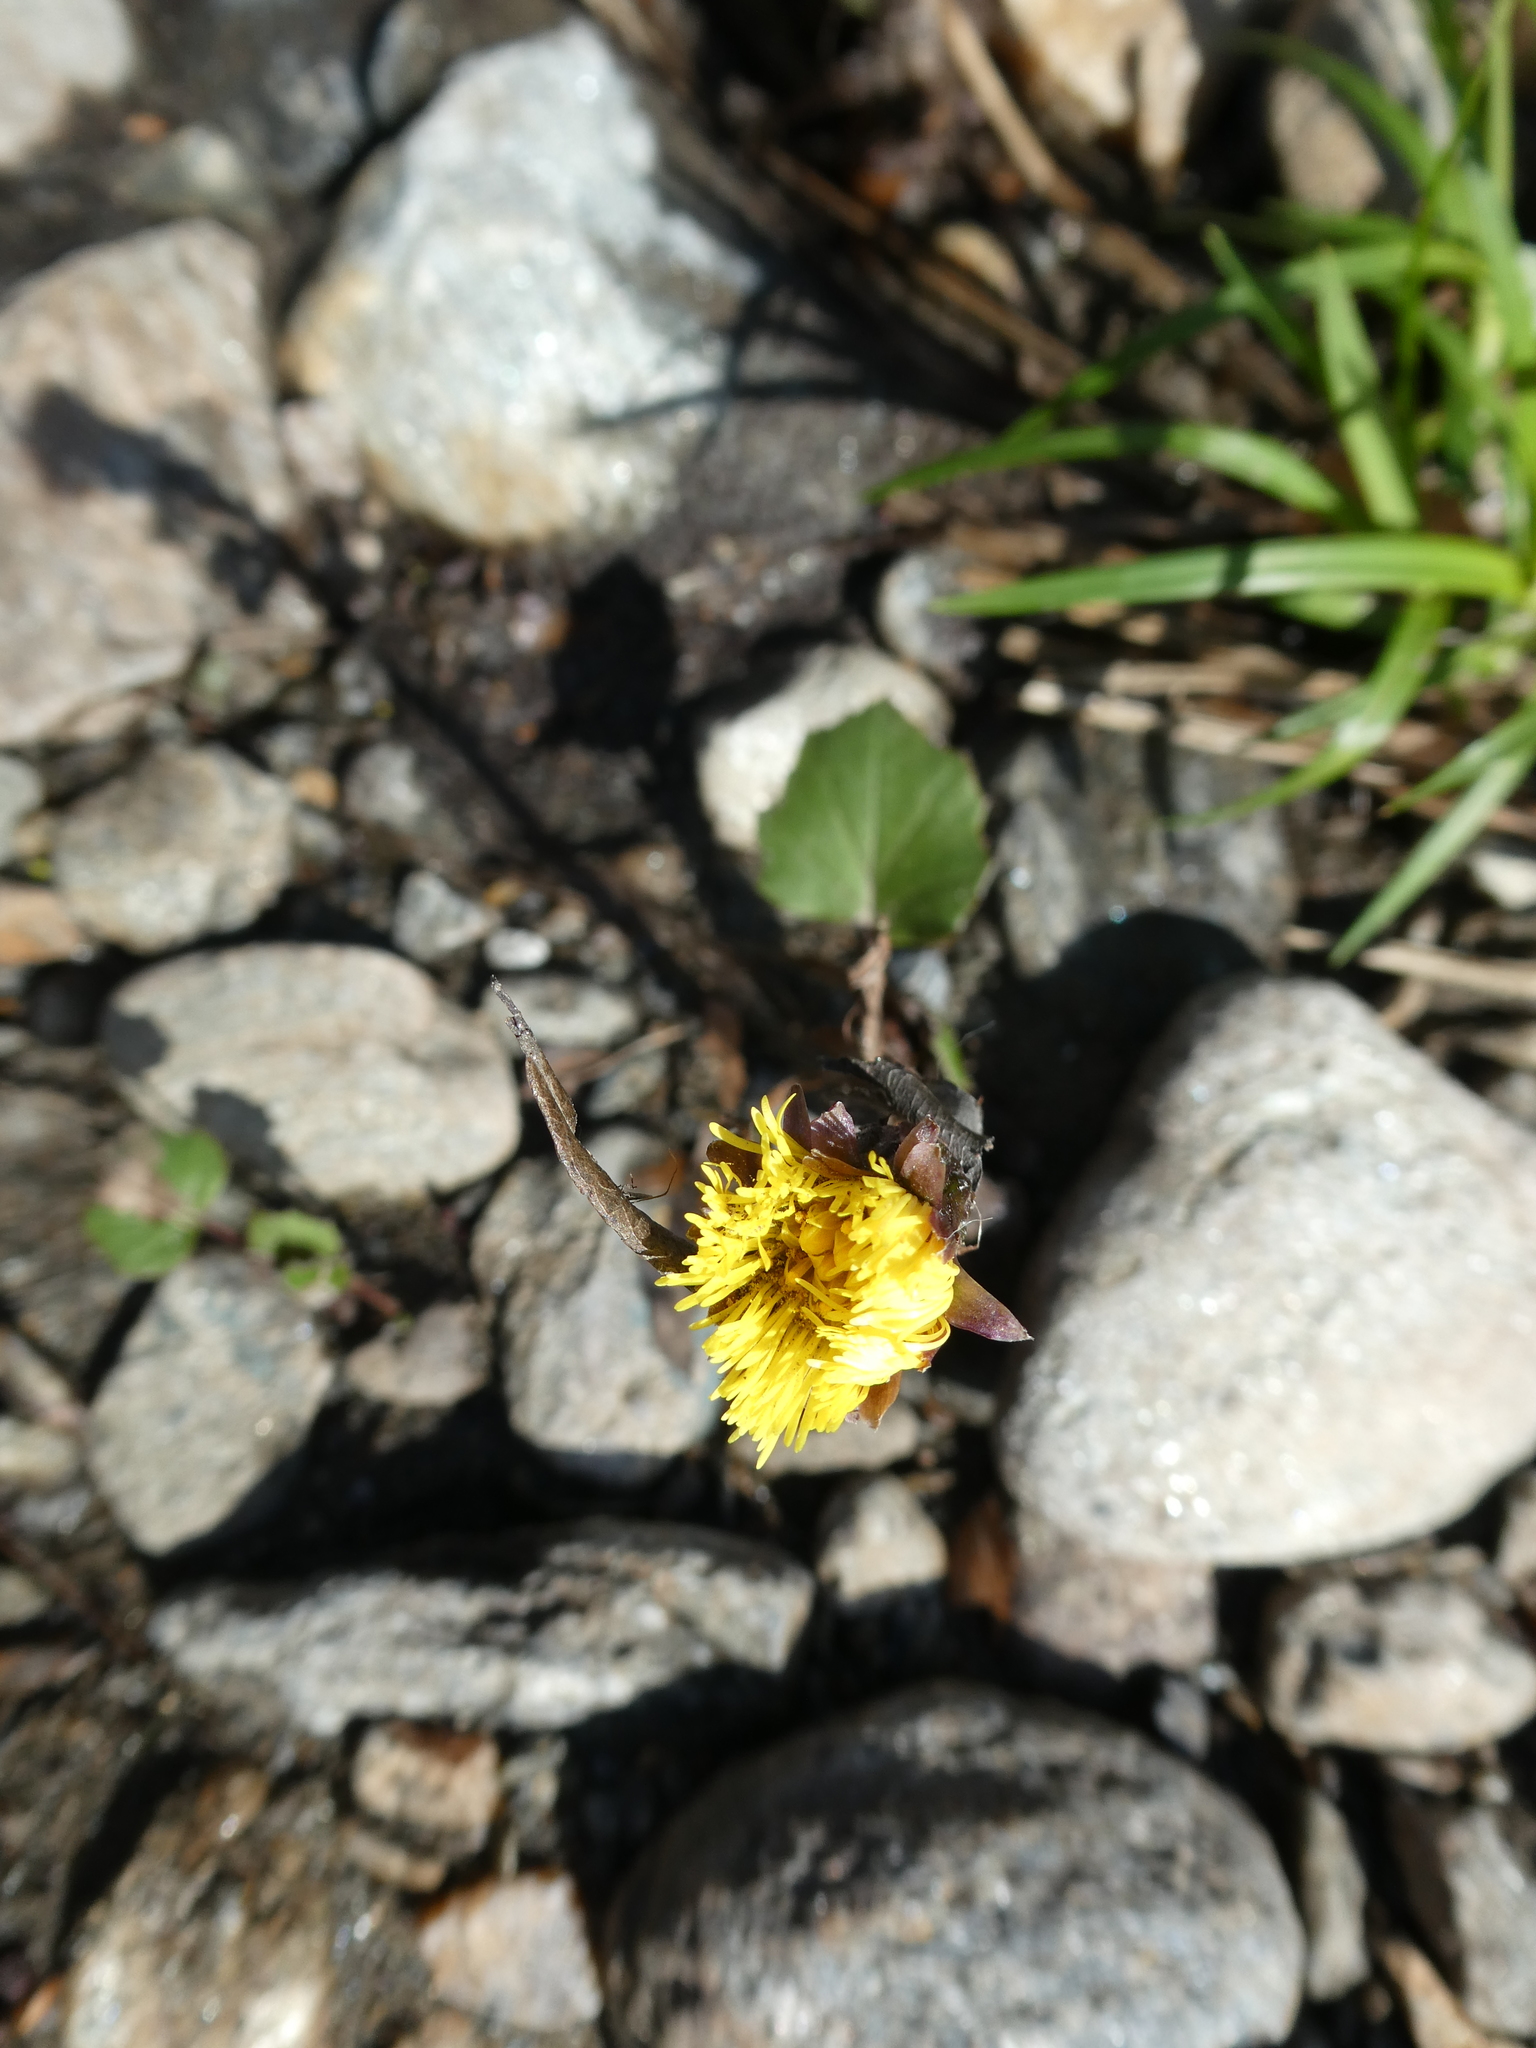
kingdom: Plantae
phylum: Tracheophyta
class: Magnoliopsida
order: Asterales
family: Asteraceae
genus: Tussilago
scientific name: Tussilago farfara
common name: Coltsfoot
